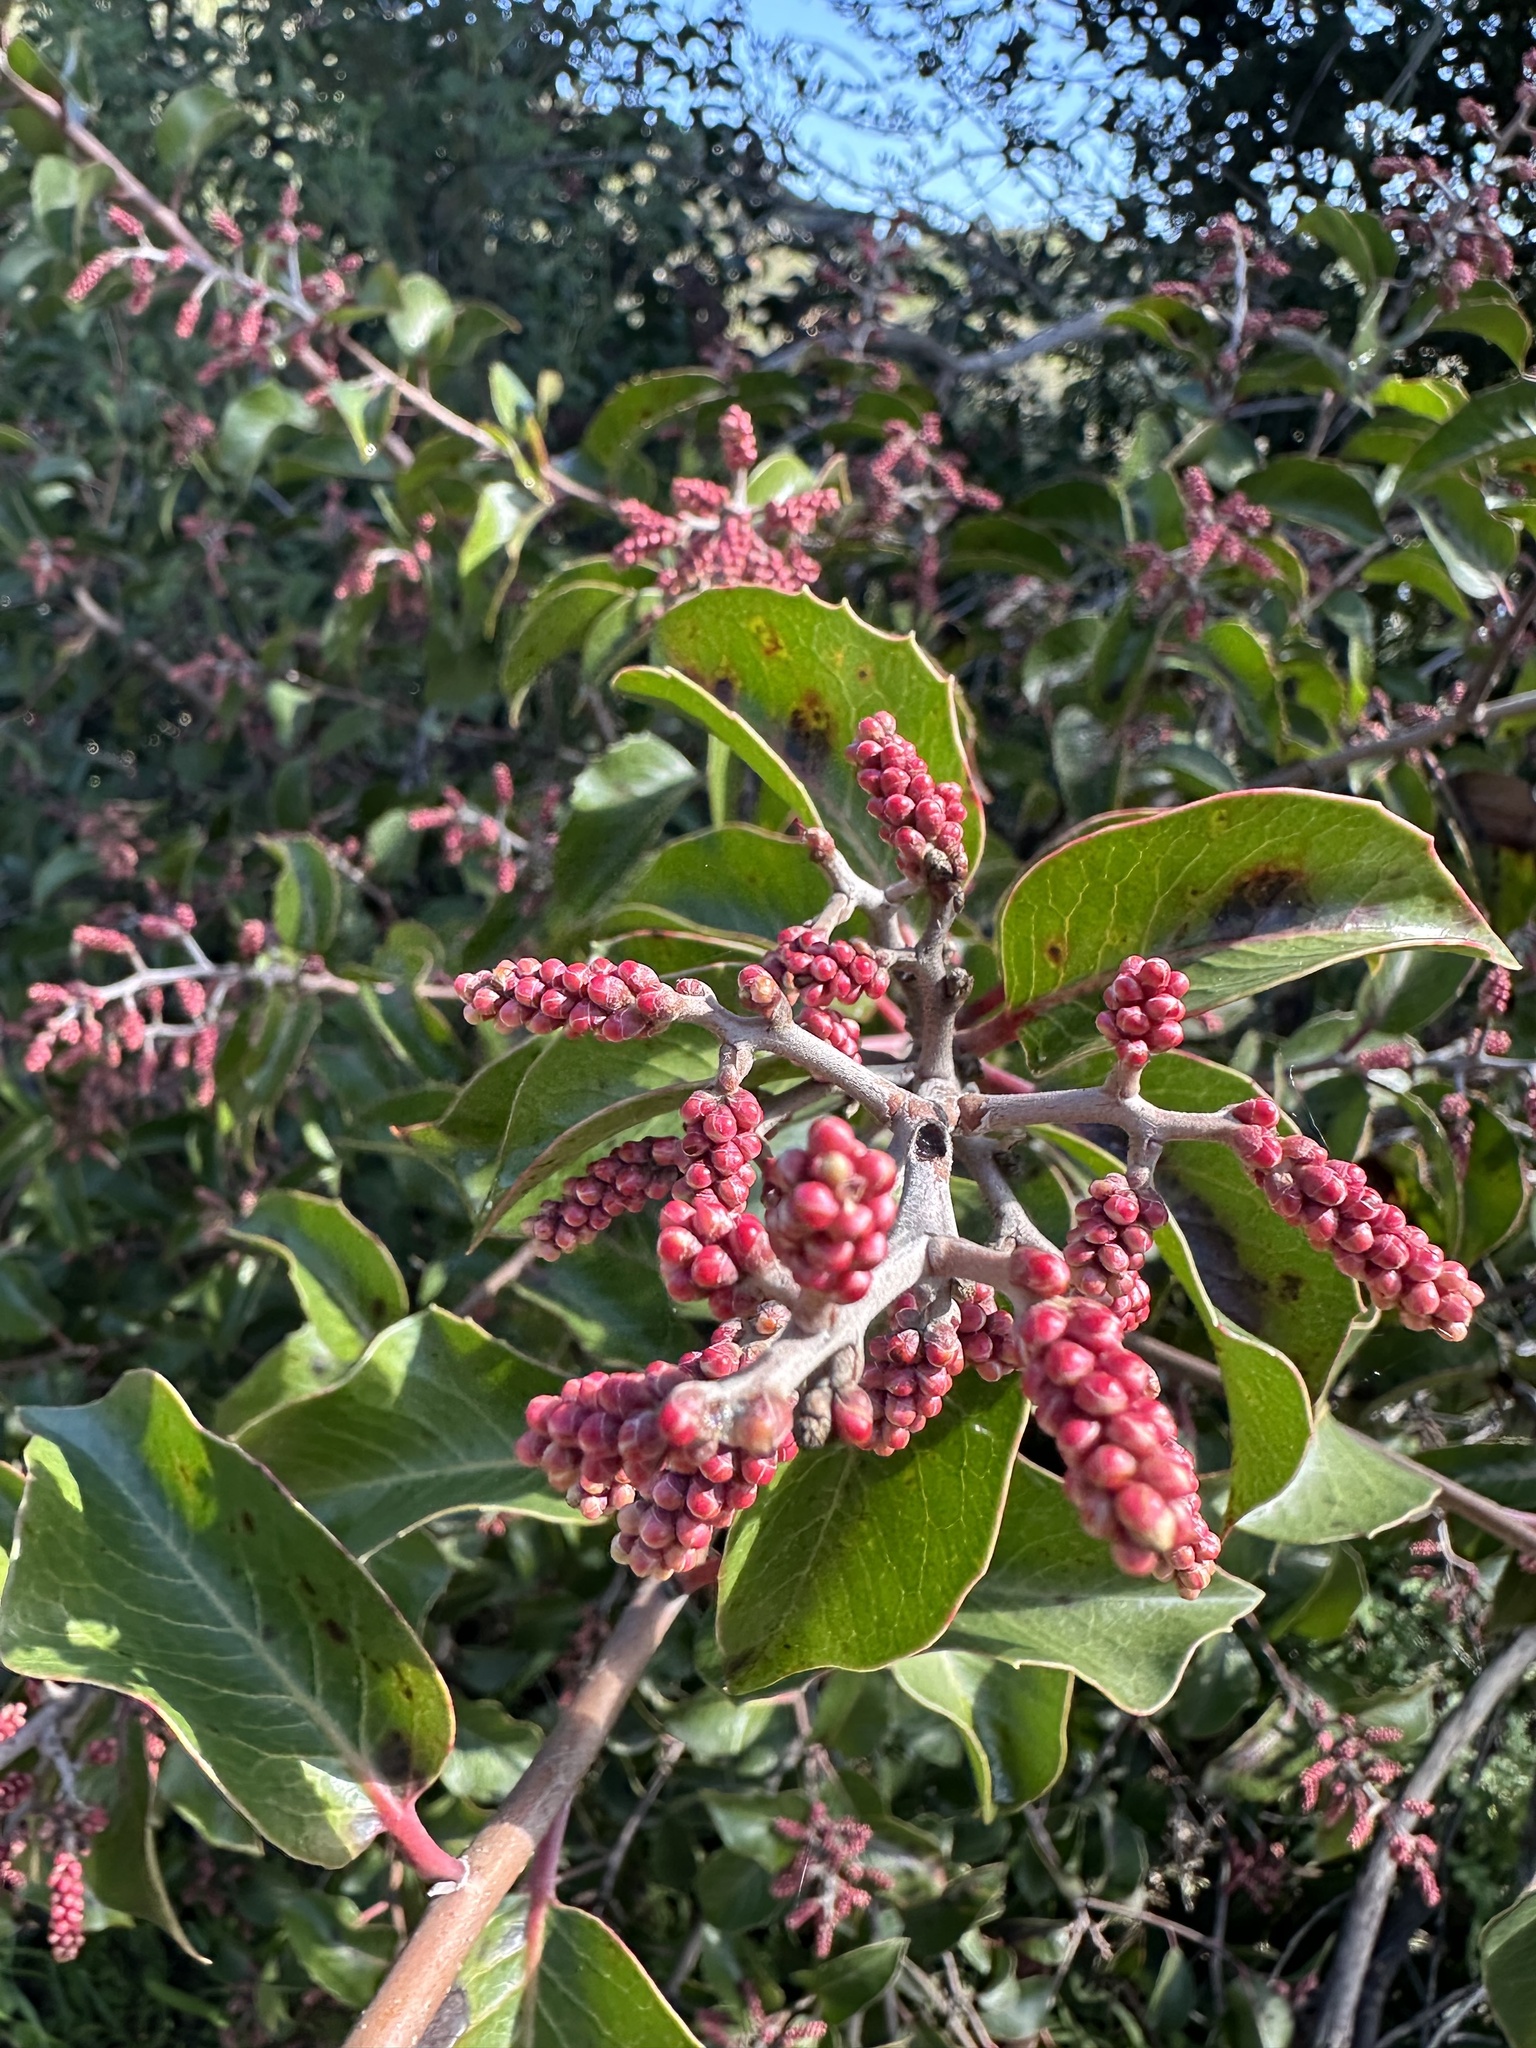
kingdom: Plantae
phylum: Tracheophyta
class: Magnoliopsida
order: Sapindales
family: Anacardiaceae
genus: Rhus
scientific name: Rhus ovata
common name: Sugar sumac
